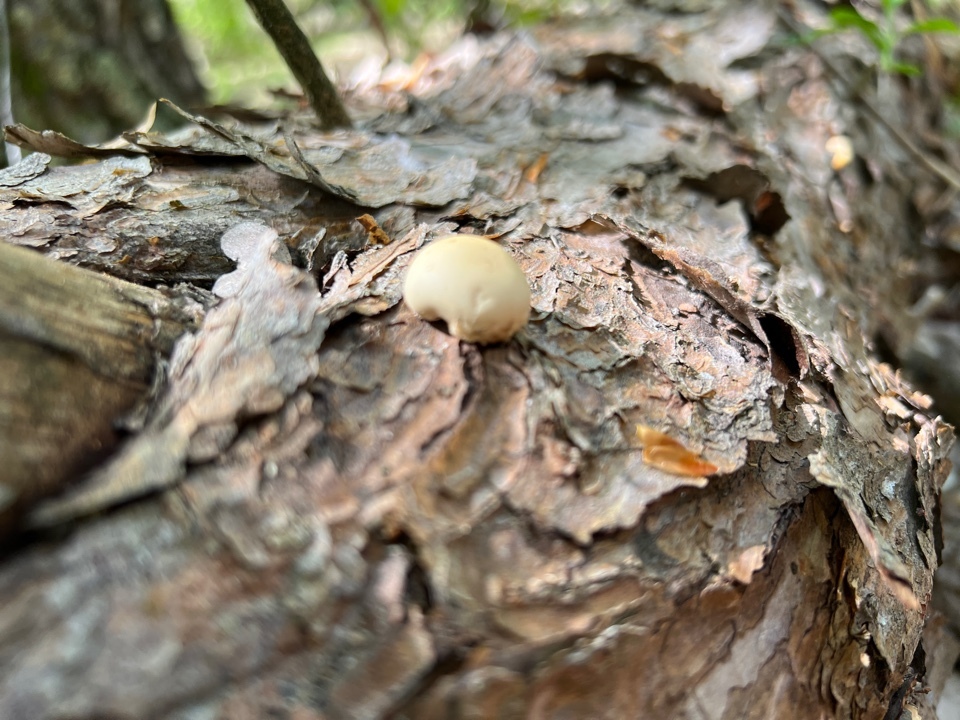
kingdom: Fungi
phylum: Basidiomycota
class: Agaricomycetes
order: Polyporales
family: Polyporaceae
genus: Cryptoporus
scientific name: Cryptoporus volvatus
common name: Veiled polypore
